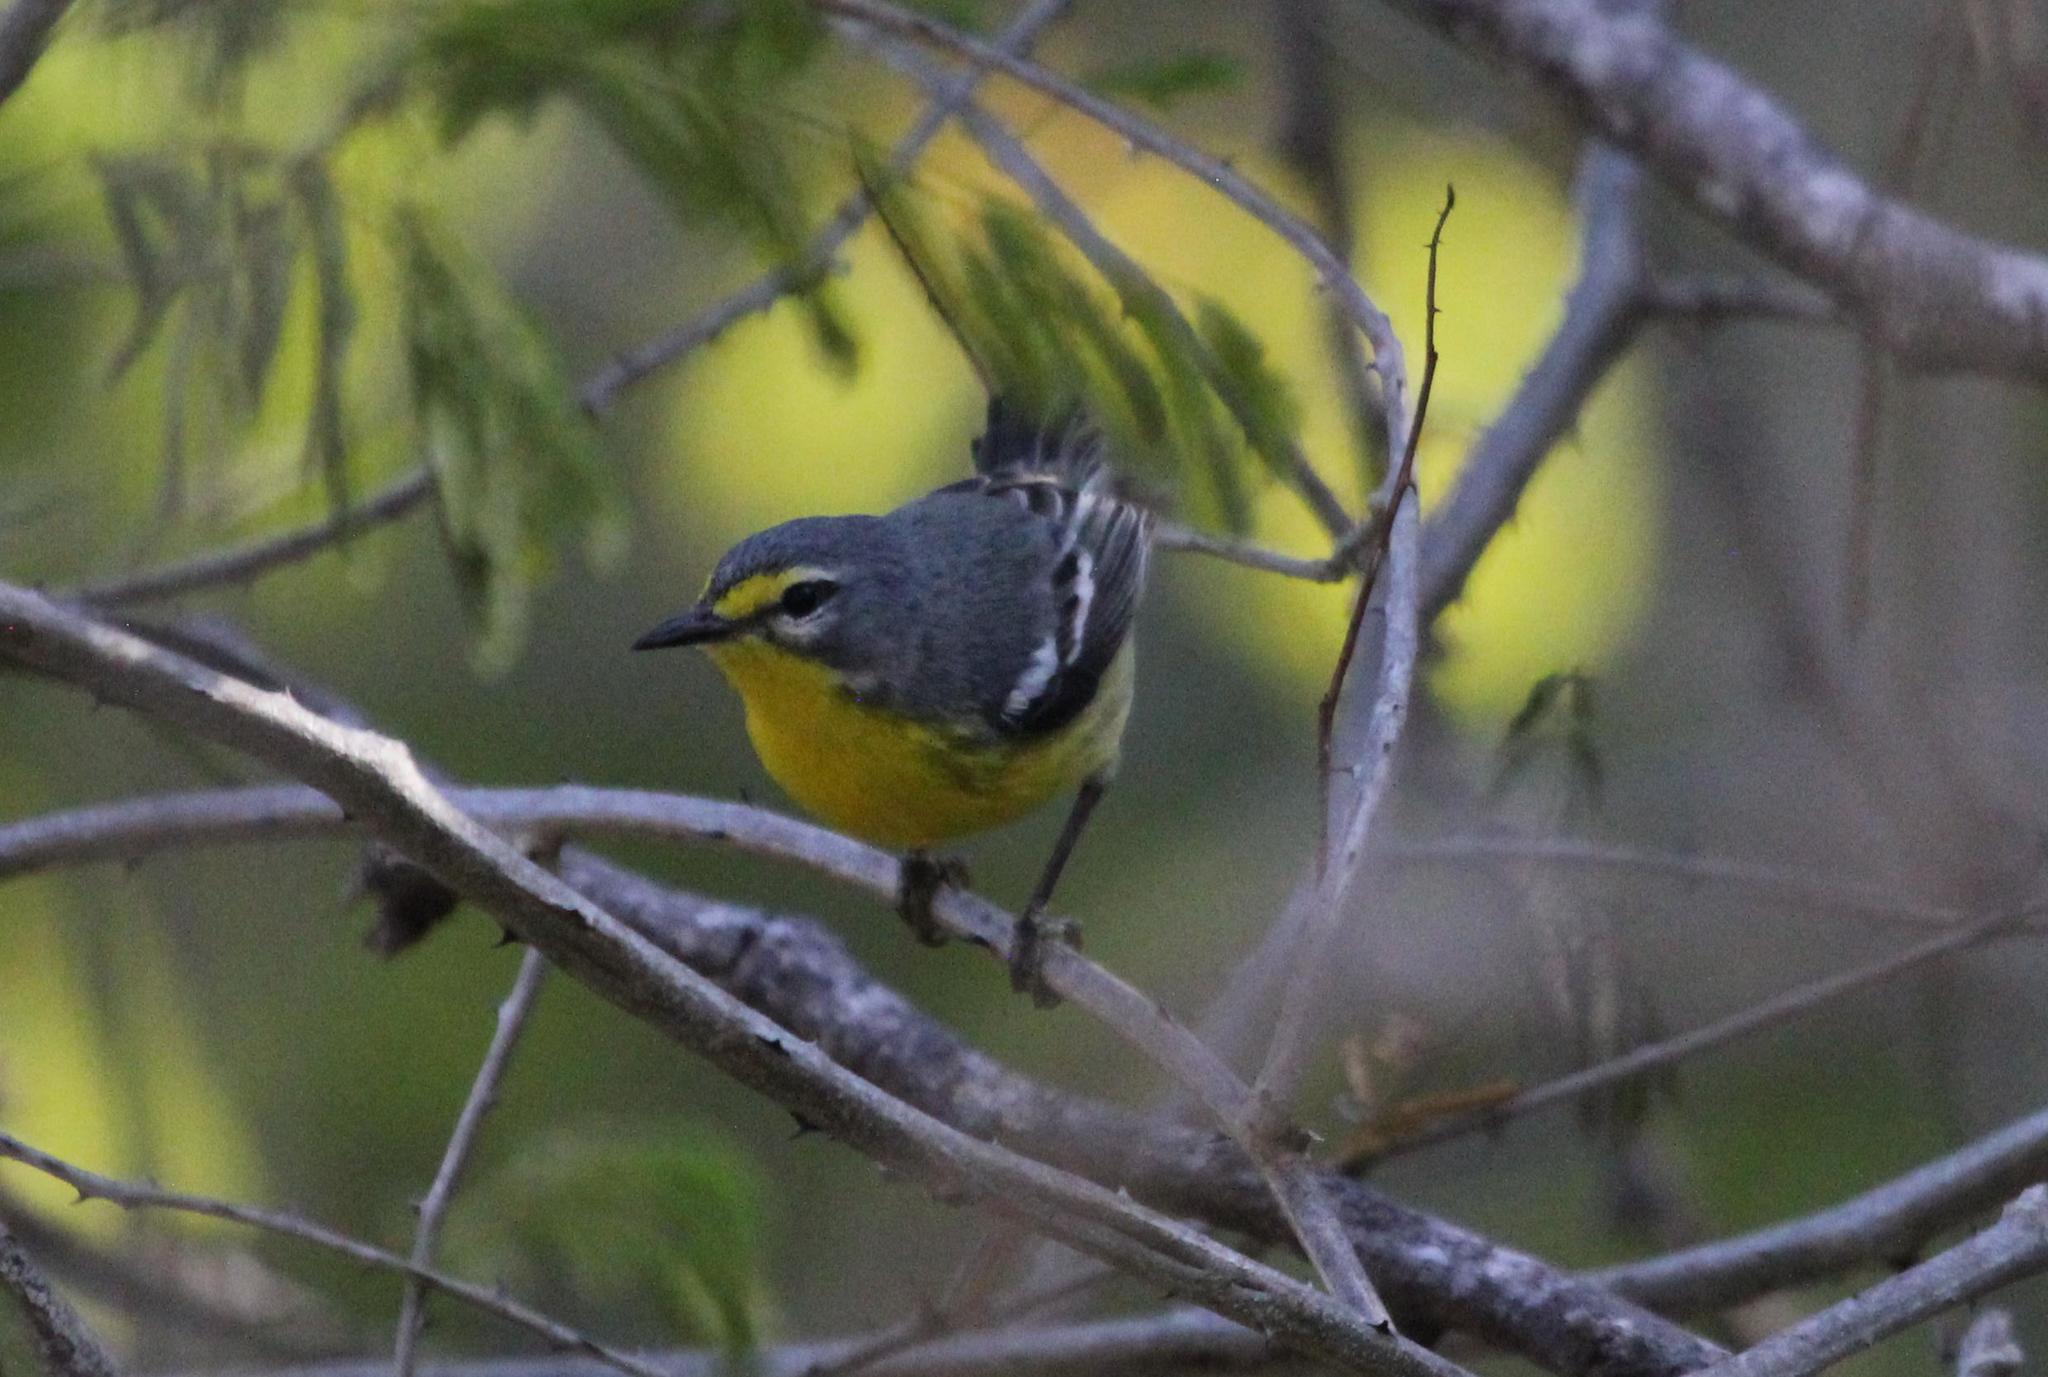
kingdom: Animalia
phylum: Chordata
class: Aves
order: Passeriformes
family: Parulidae
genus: Setophaga
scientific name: Setophaga adelaidae
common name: Adelaide's warbler
